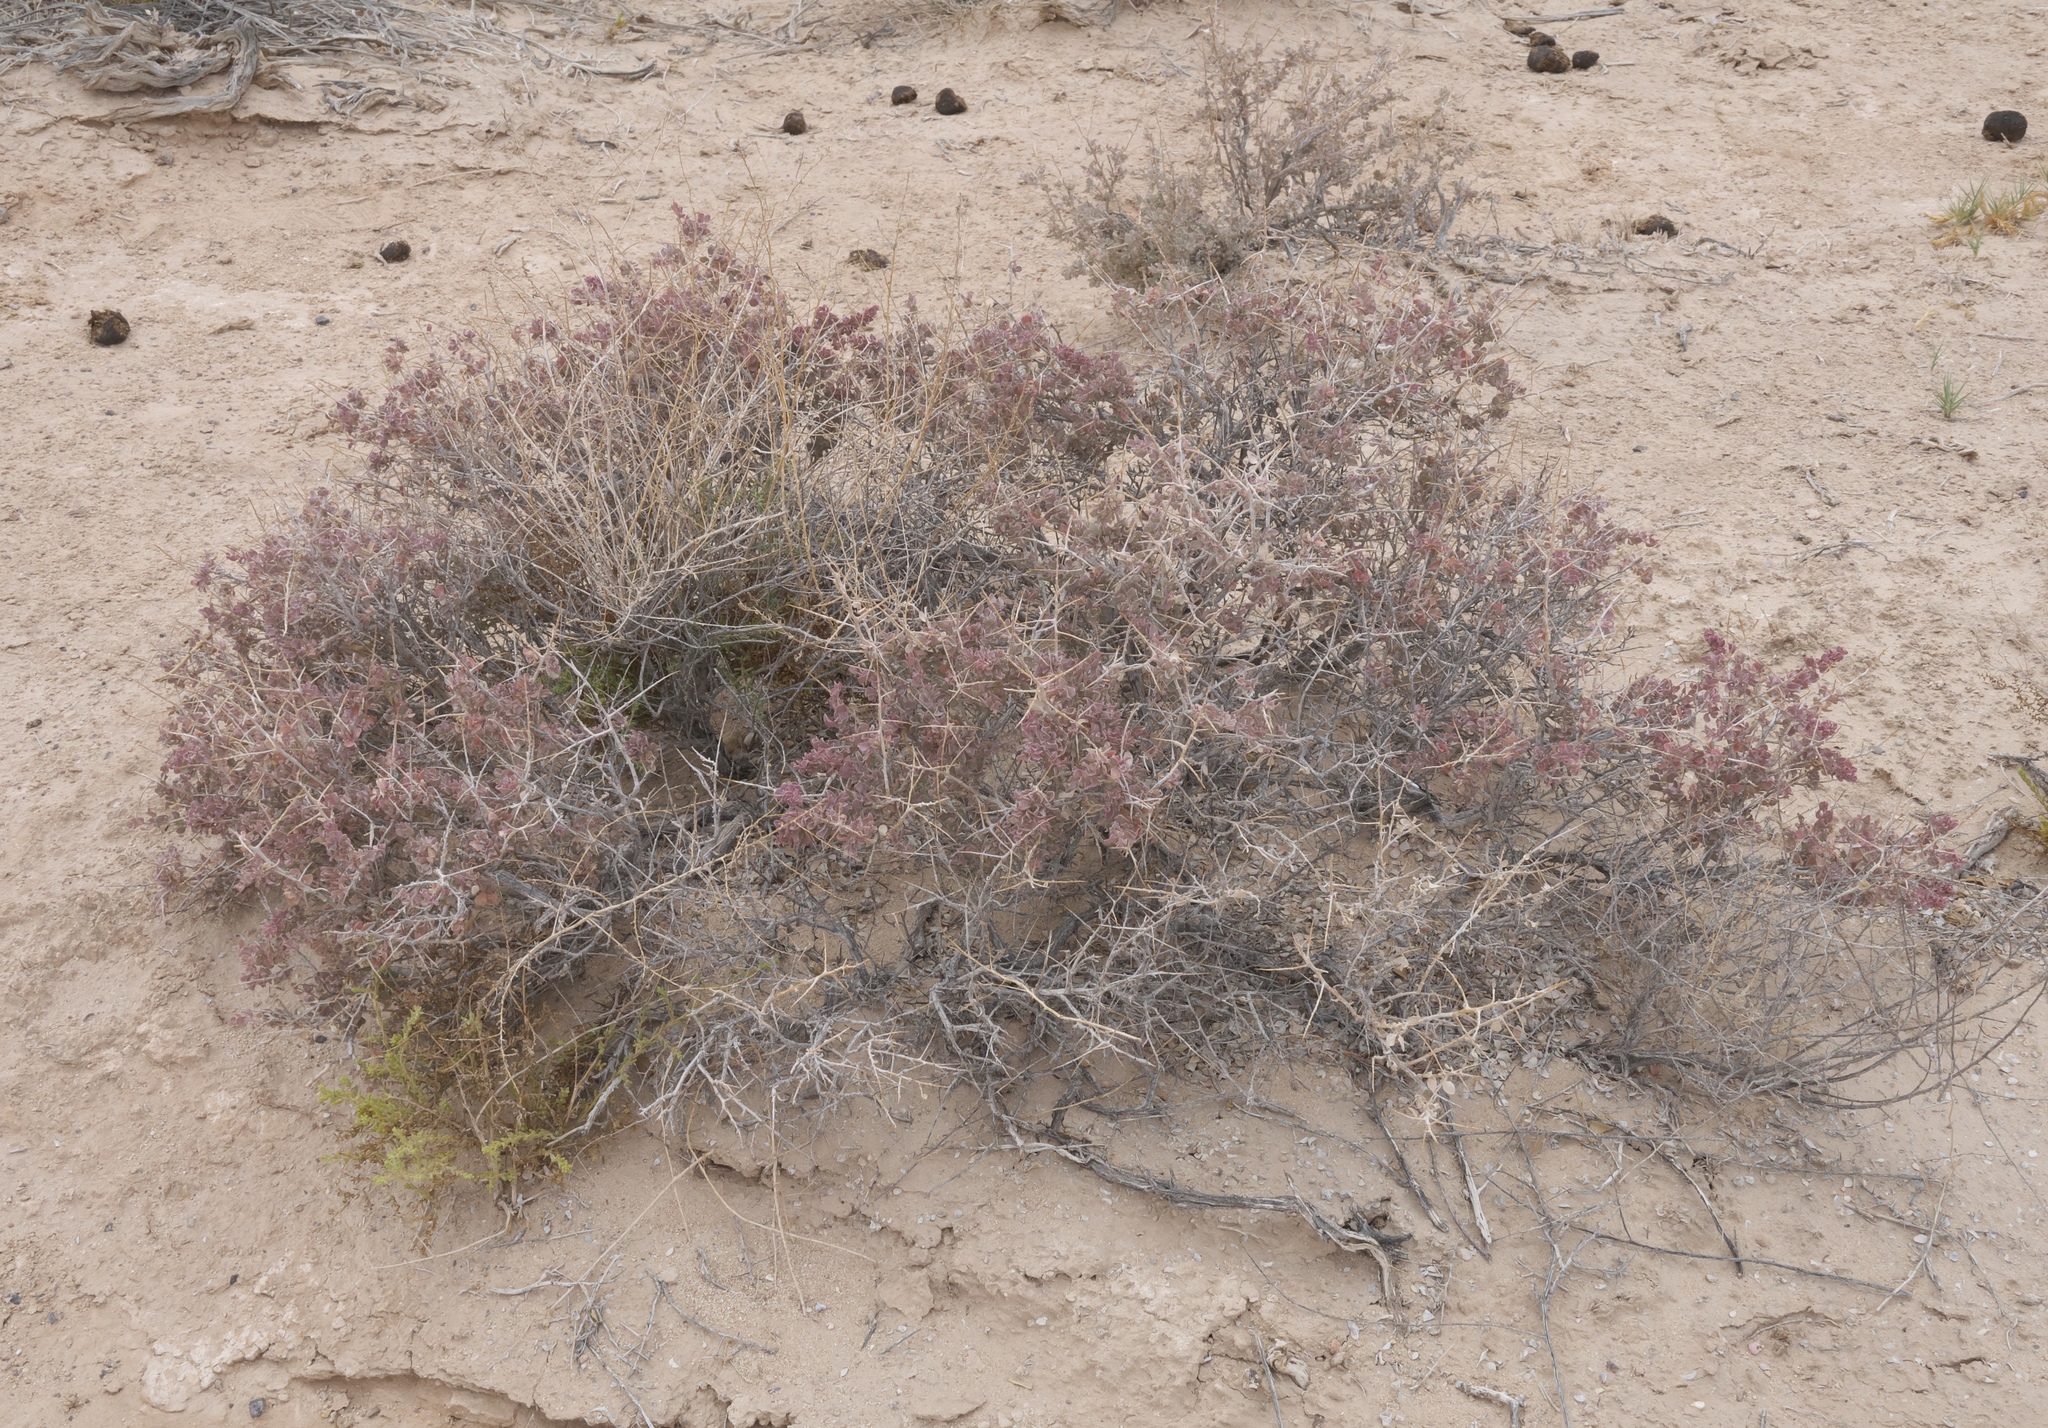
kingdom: Plantae
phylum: Tracheophyta
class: Magnoliopsida
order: Caryophyllales
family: Amaranthaceae
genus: Atriplex
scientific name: Atriplex confertifolia
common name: Shadscale
